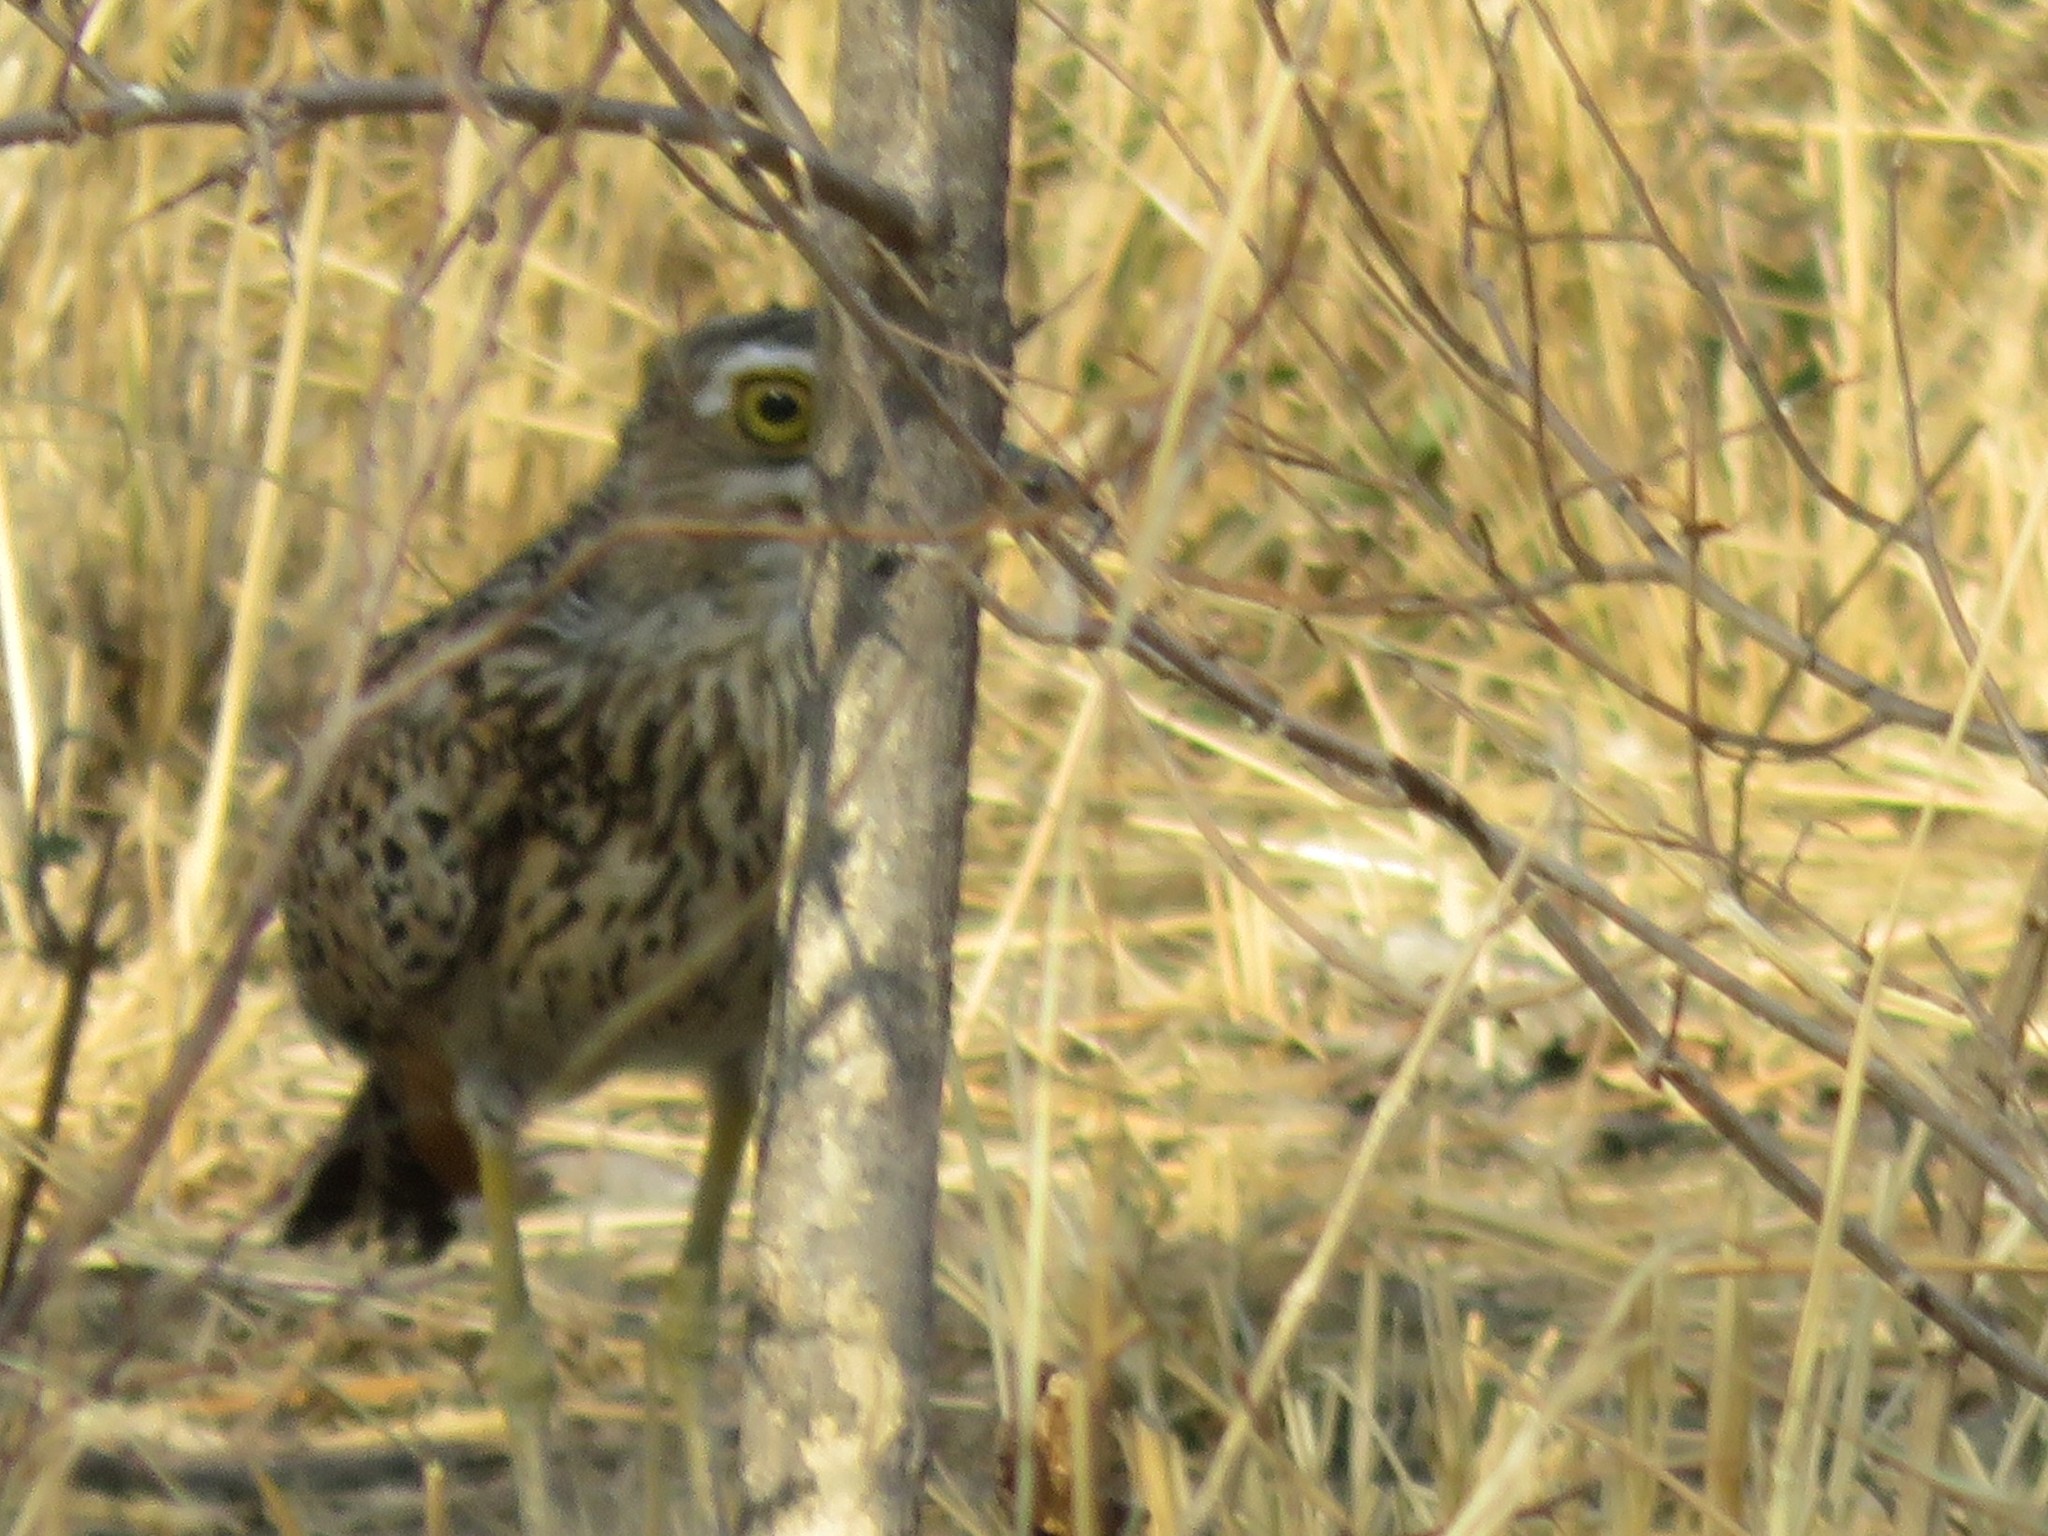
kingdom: Animalia
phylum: Chordata
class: Aves
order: Charadriiformes
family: Burhinidae
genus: Burhinus
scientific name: Burhinus capensis
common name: Spotted thick-knee
